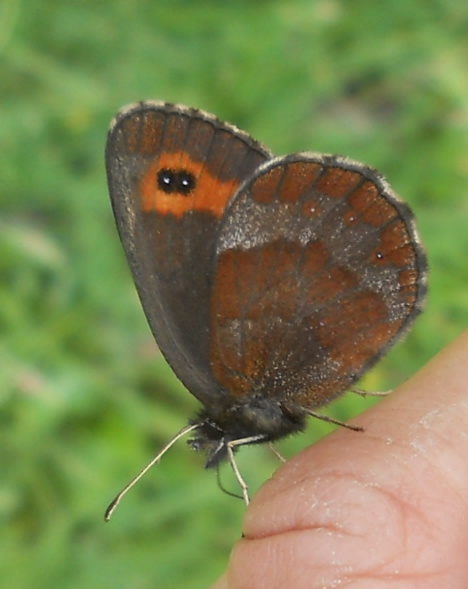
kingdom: Animalia
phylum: Arthropoda
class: Insecta
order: Lepidoptera
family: Nymphalidae
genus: Erebia
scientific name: Erebia aethiops
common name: Scotch argus
